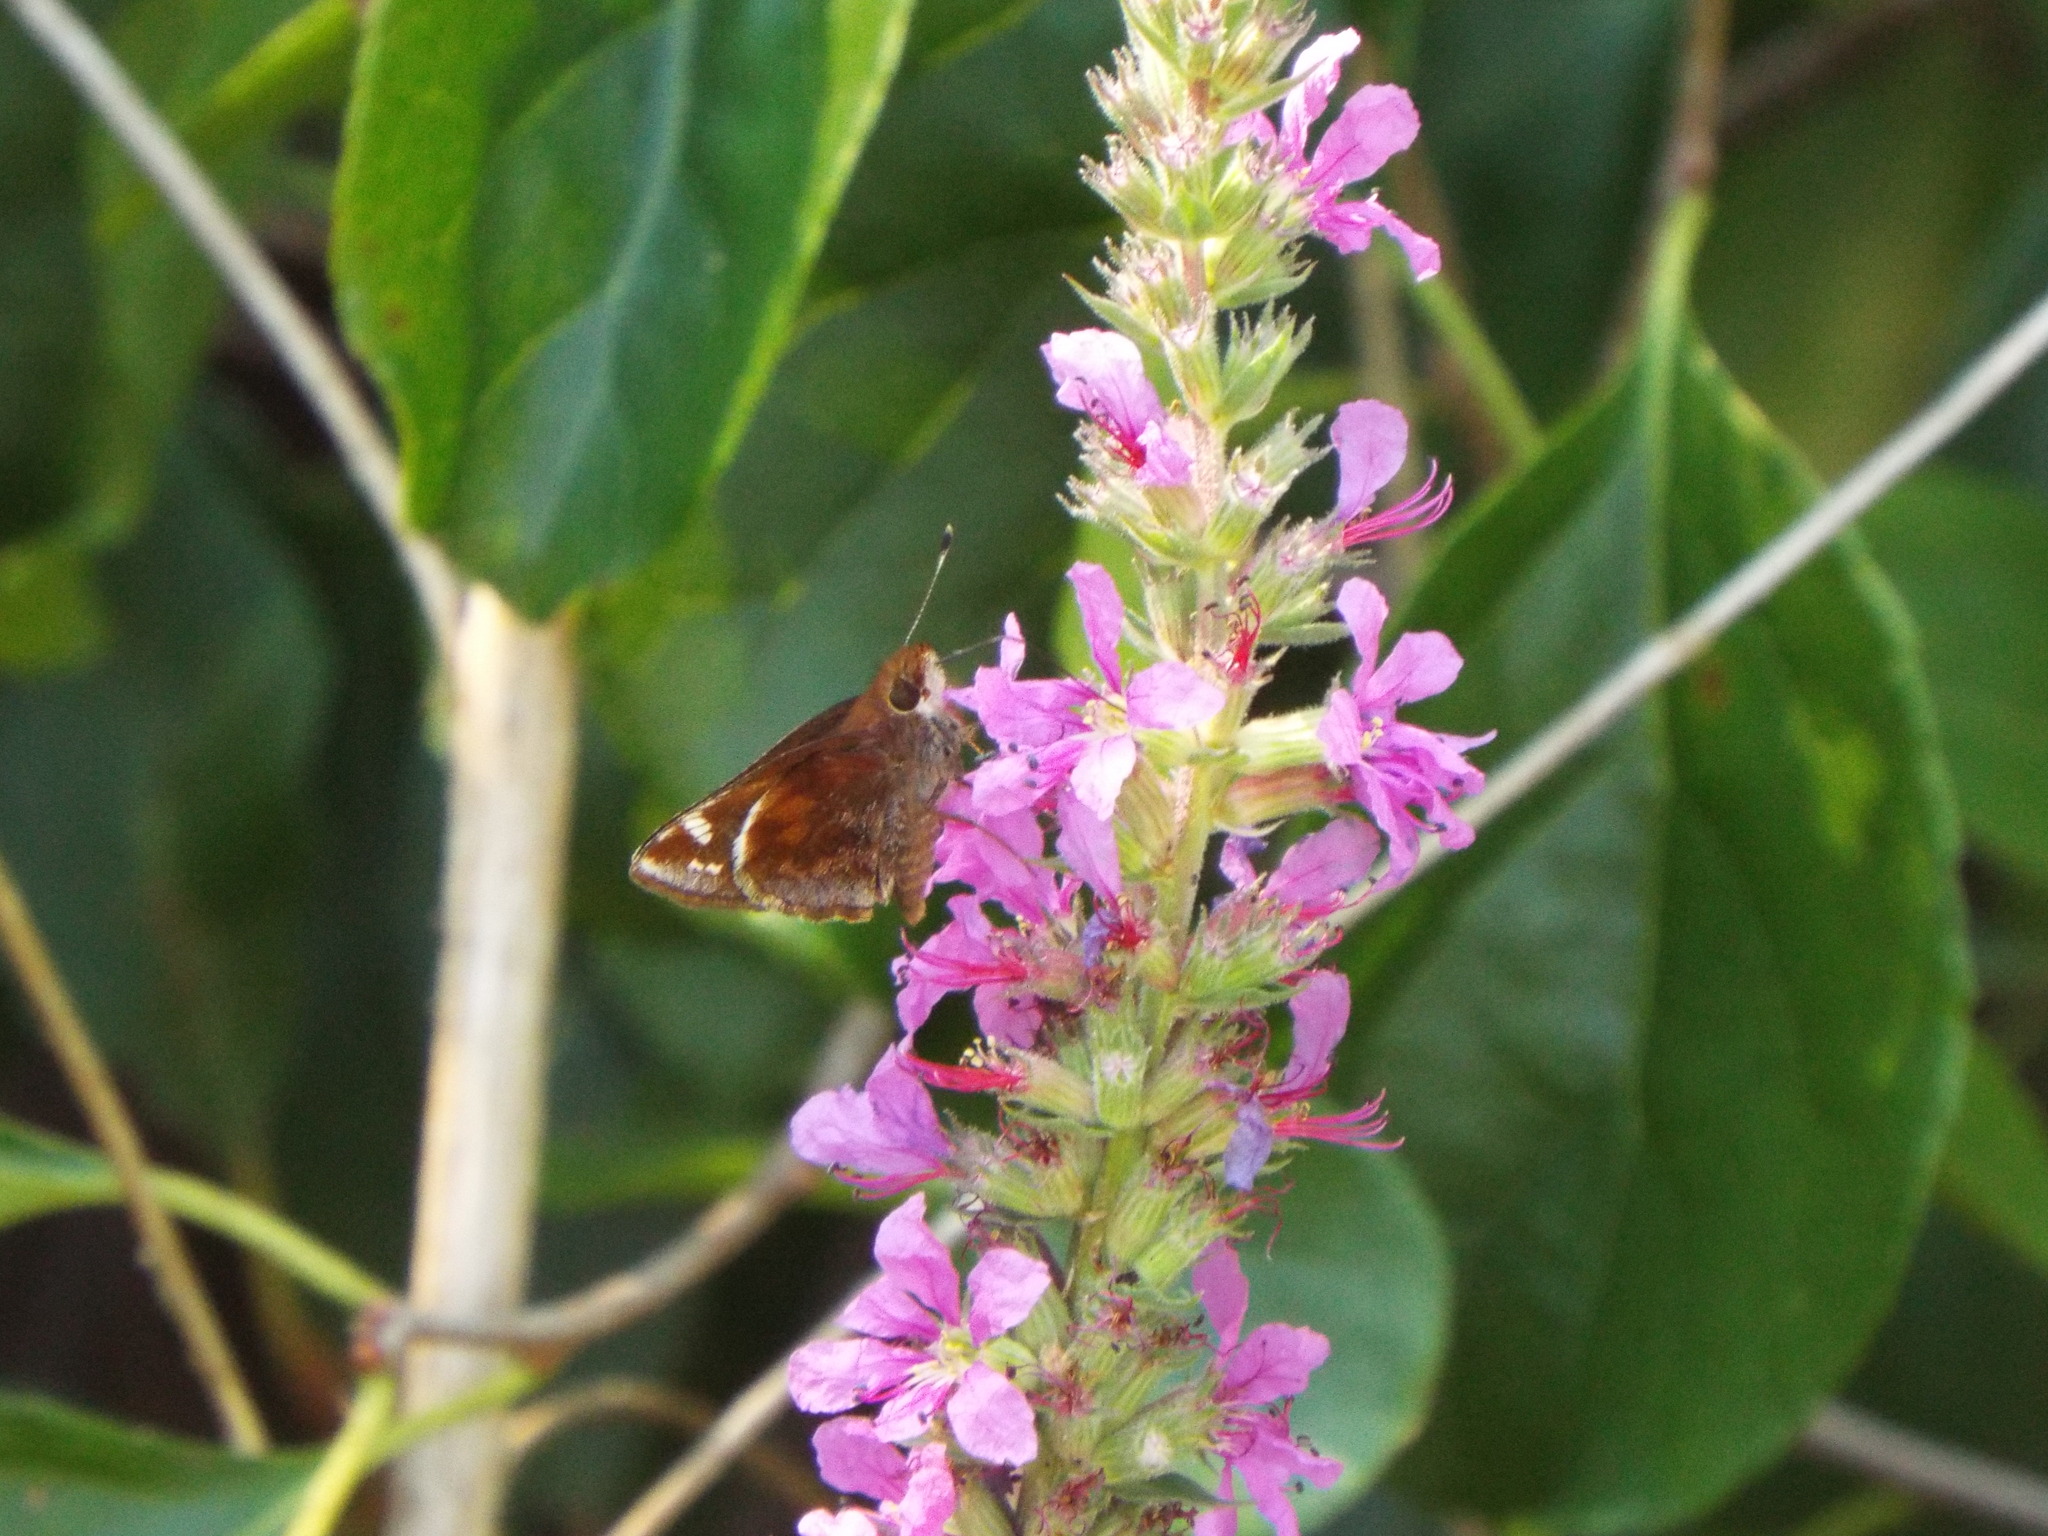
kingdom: Animalia
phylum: Arthropoda
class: Insecta
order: Lepidoptera
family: Hesperiidae
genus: Lon
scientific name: Lon zabulon
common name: Zabulon skipper
